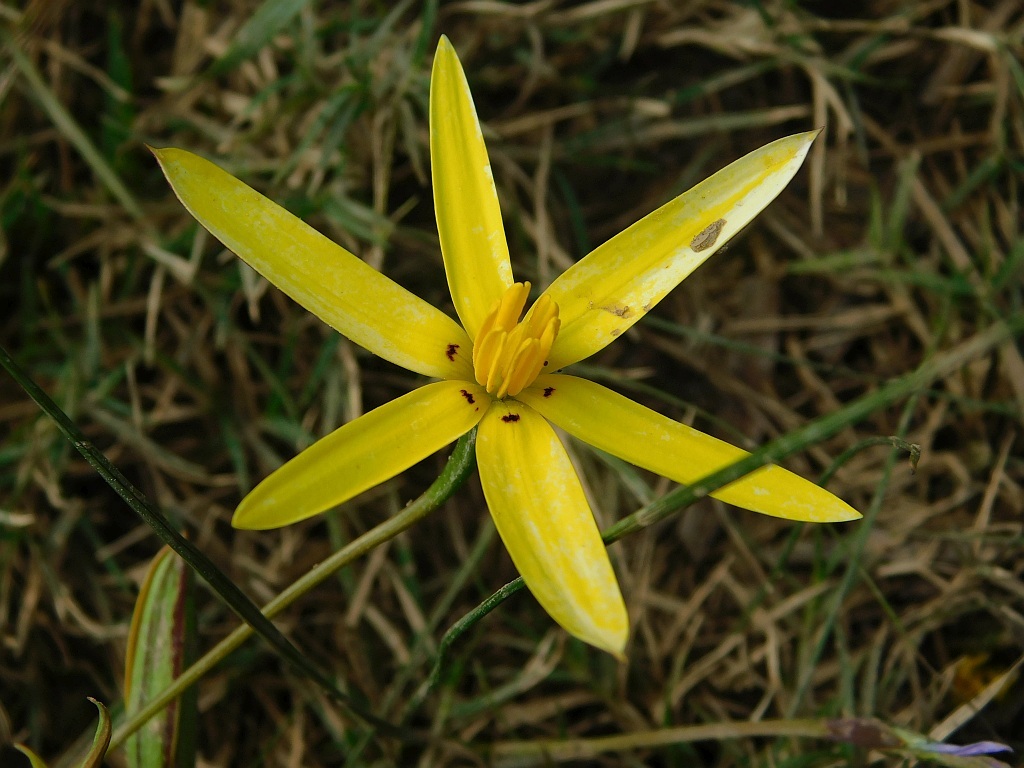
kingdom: Plantae
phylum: Tracheophyta
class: Liliopsida
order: Asparagales
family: Hypoxidaceae
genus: Pauridia
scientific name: Pauridia capensis
